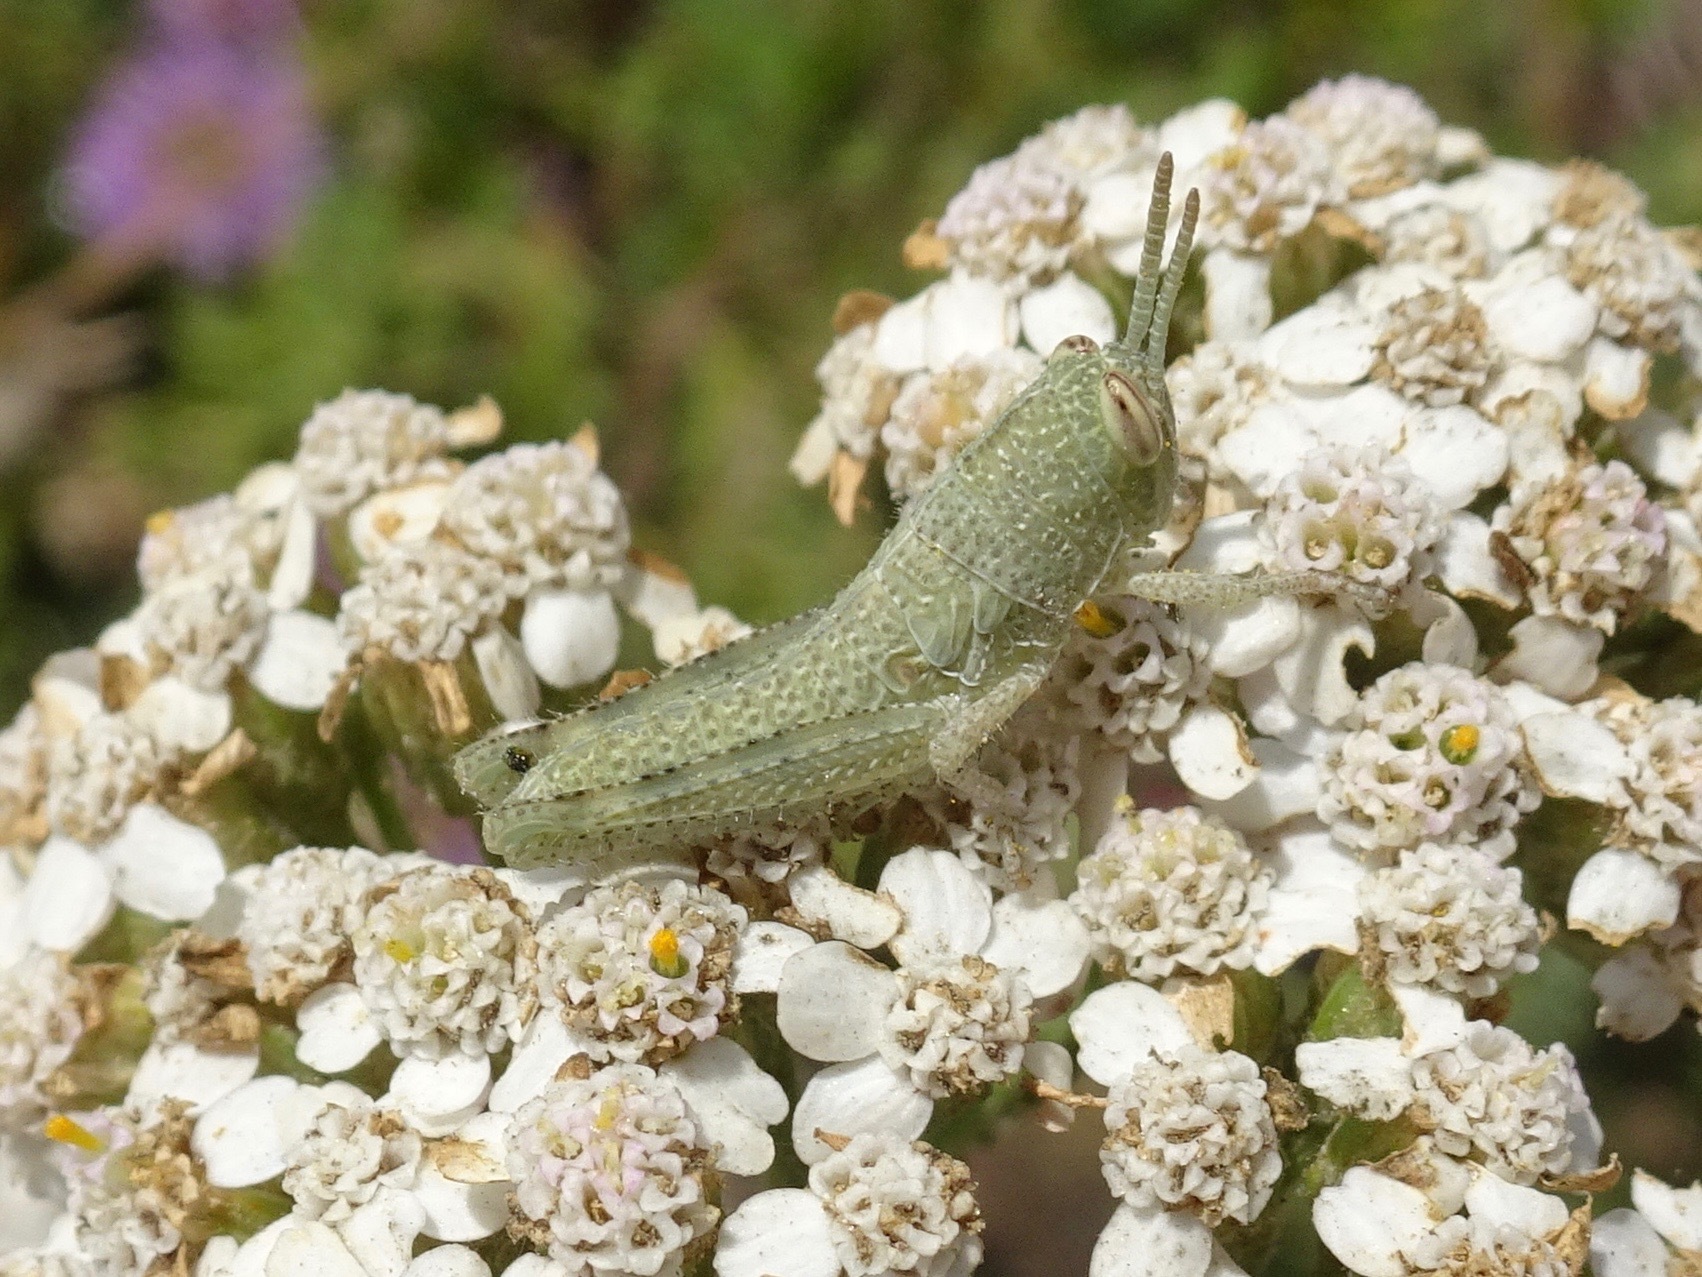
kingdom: Animalia
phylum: Arthropoda
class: Insecta
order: Orthoptera
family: Acrididae
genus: Schistocerca
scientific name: Schistocerca nitens
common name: Vagrant grasshopper
